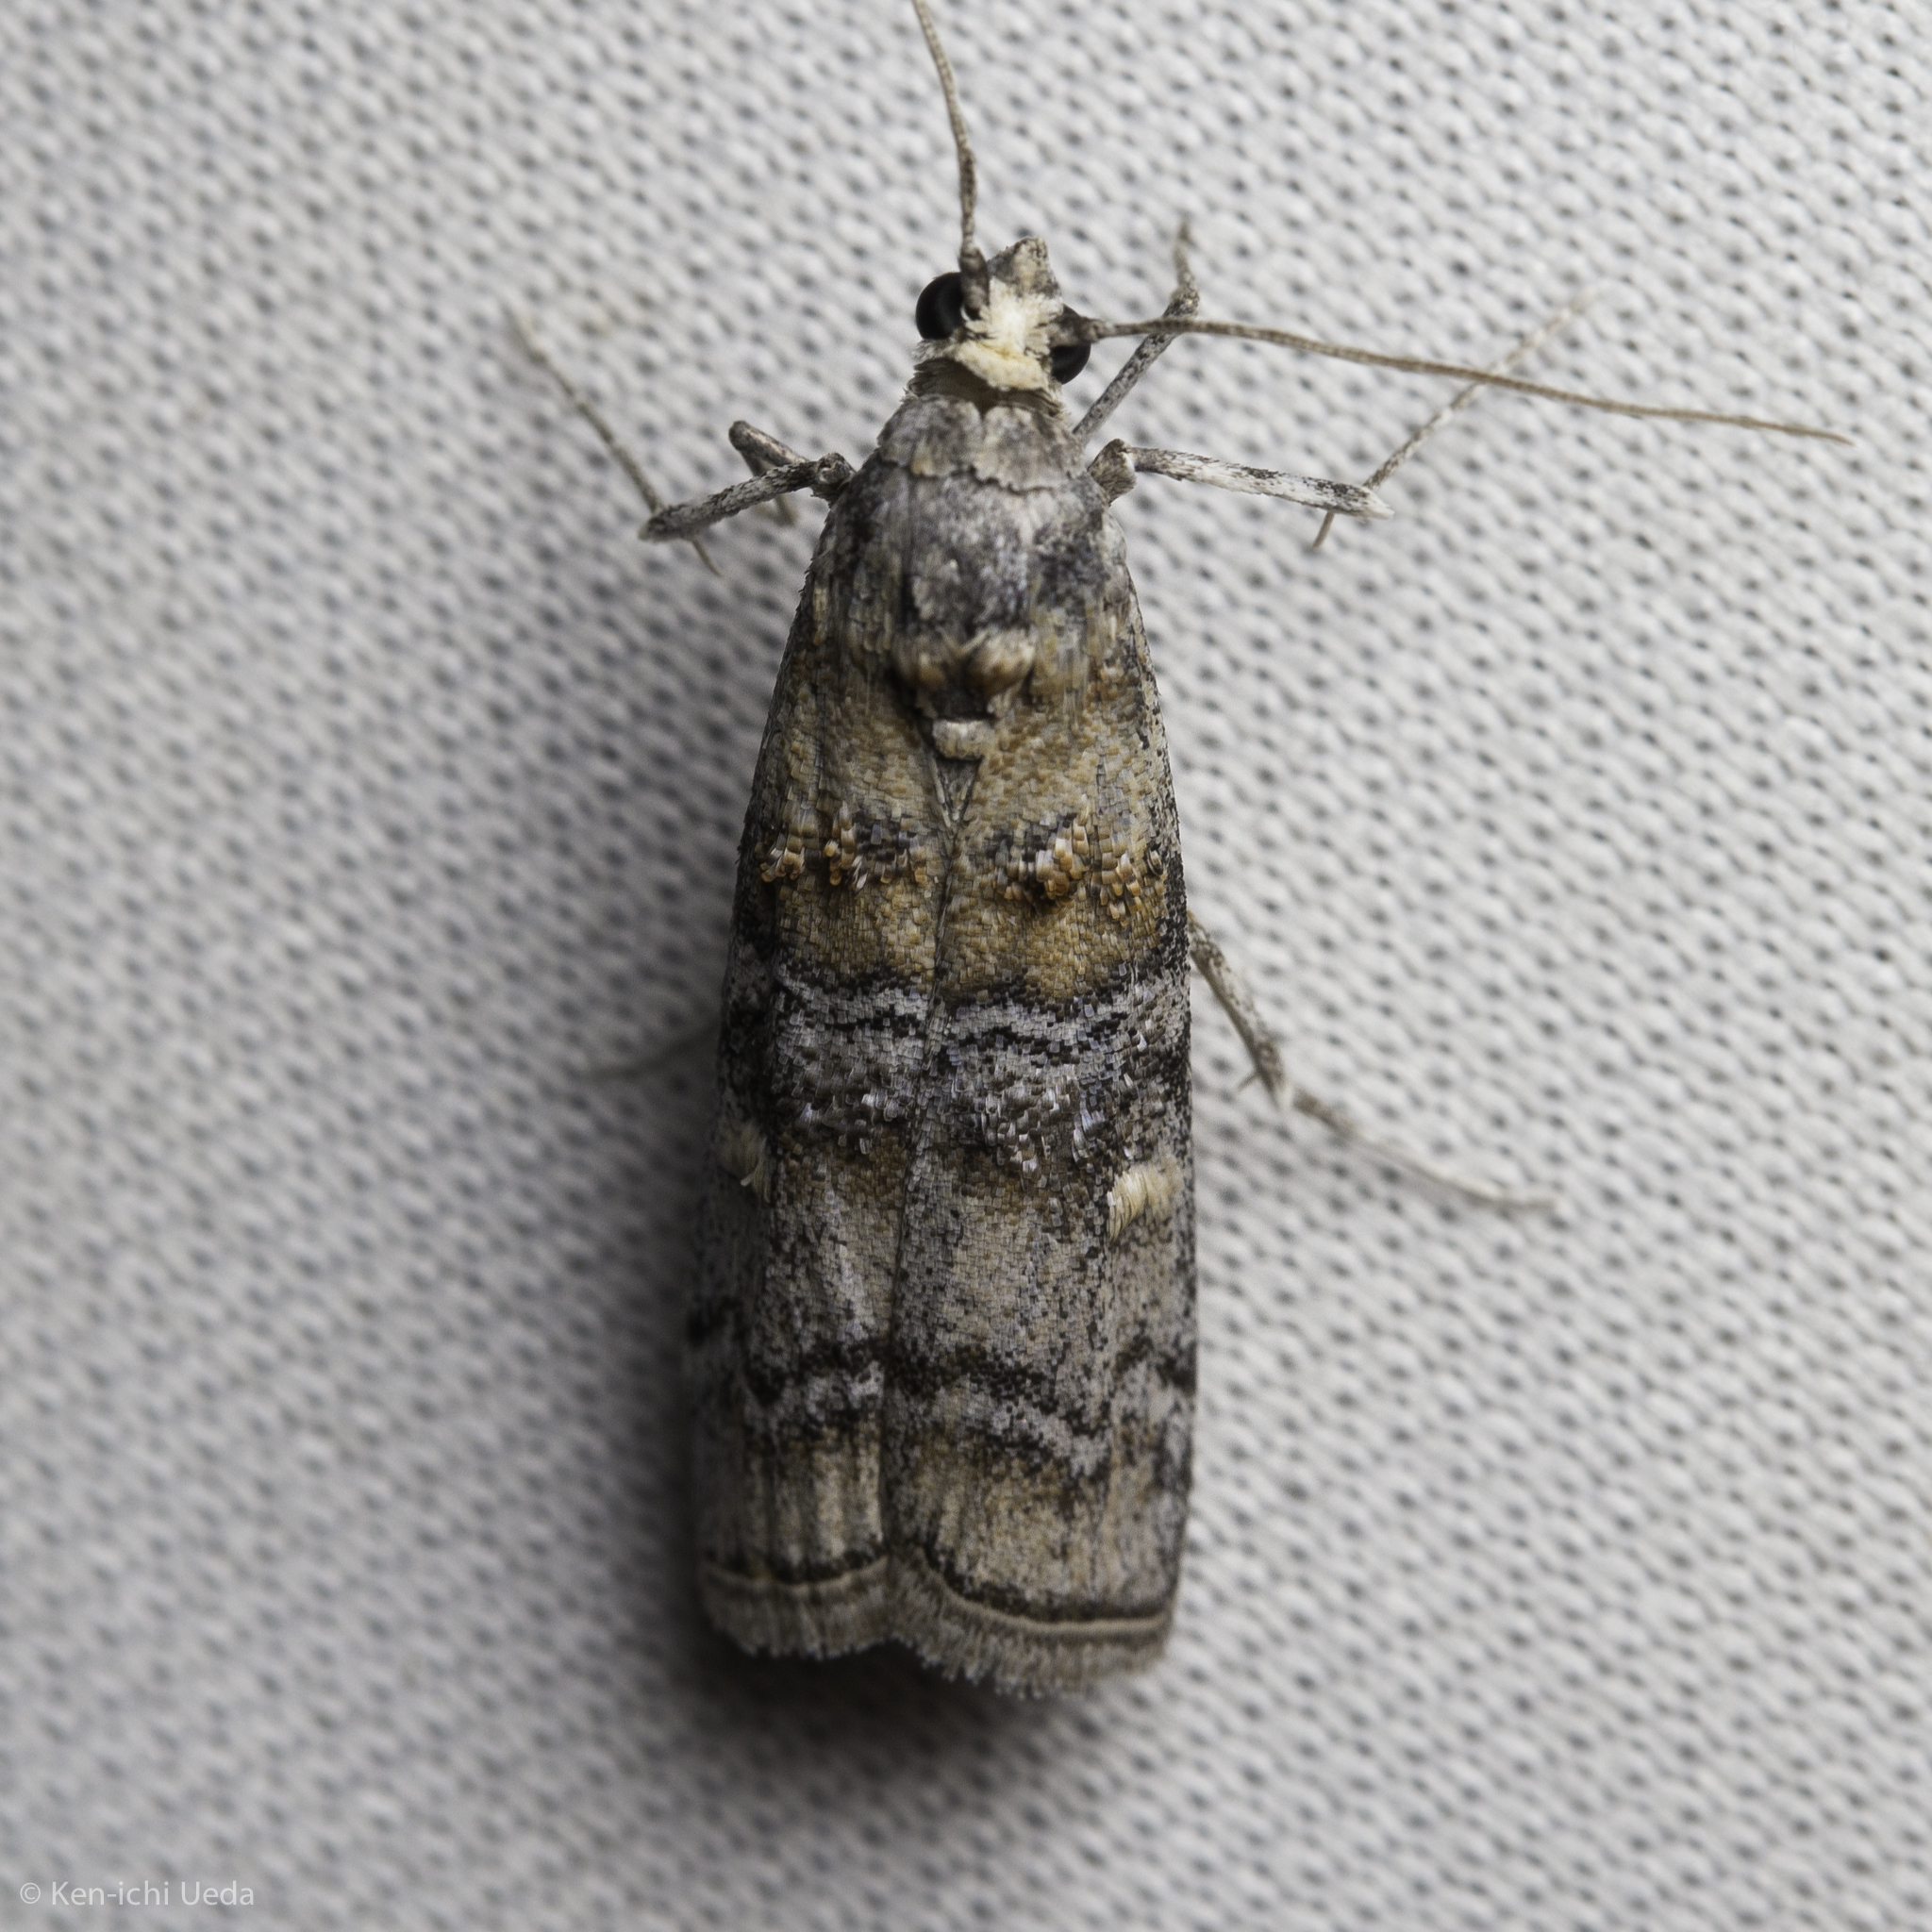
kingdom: Animalia
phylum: Arthropoda
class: Insecta
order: Lepidoptera
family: Pyralidae
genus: Dioryctria
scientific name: Dioryctria fordi
